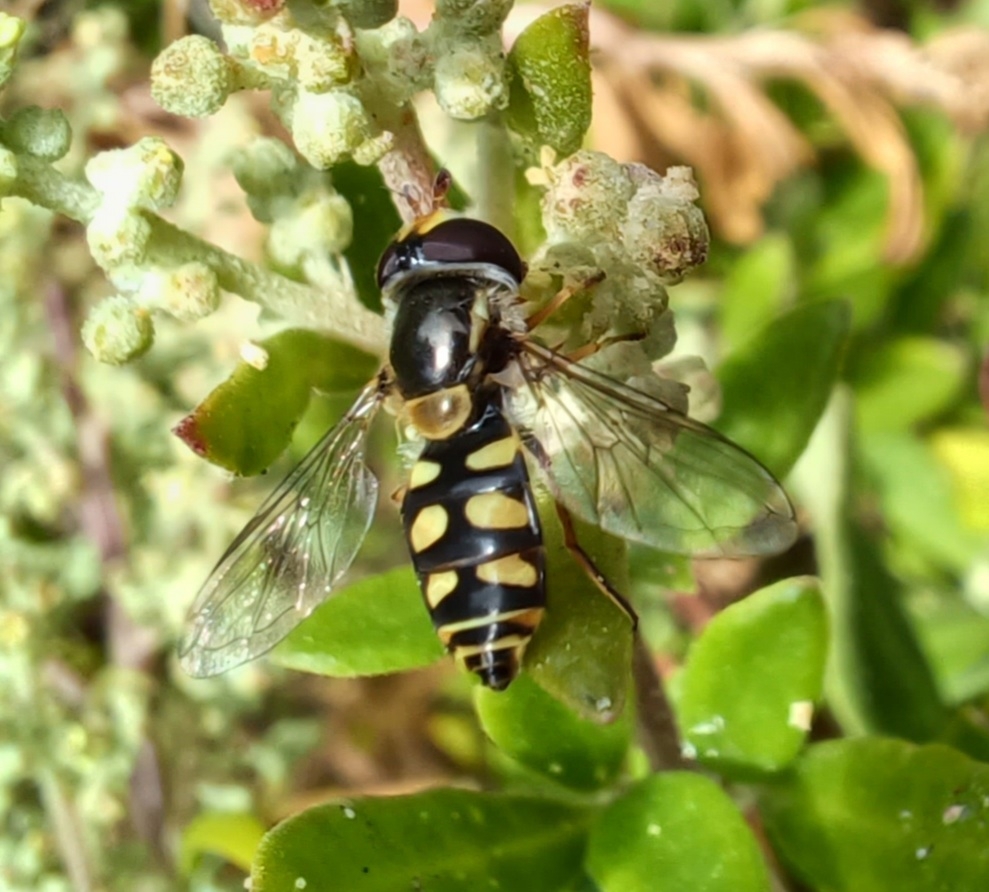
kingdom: Animalia
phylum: Arthropoda
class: Insecta
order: Diptera
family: Syrphidae
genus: Simosyrphus
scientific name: Simosyrphus grandicornis
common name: Hoverfly
